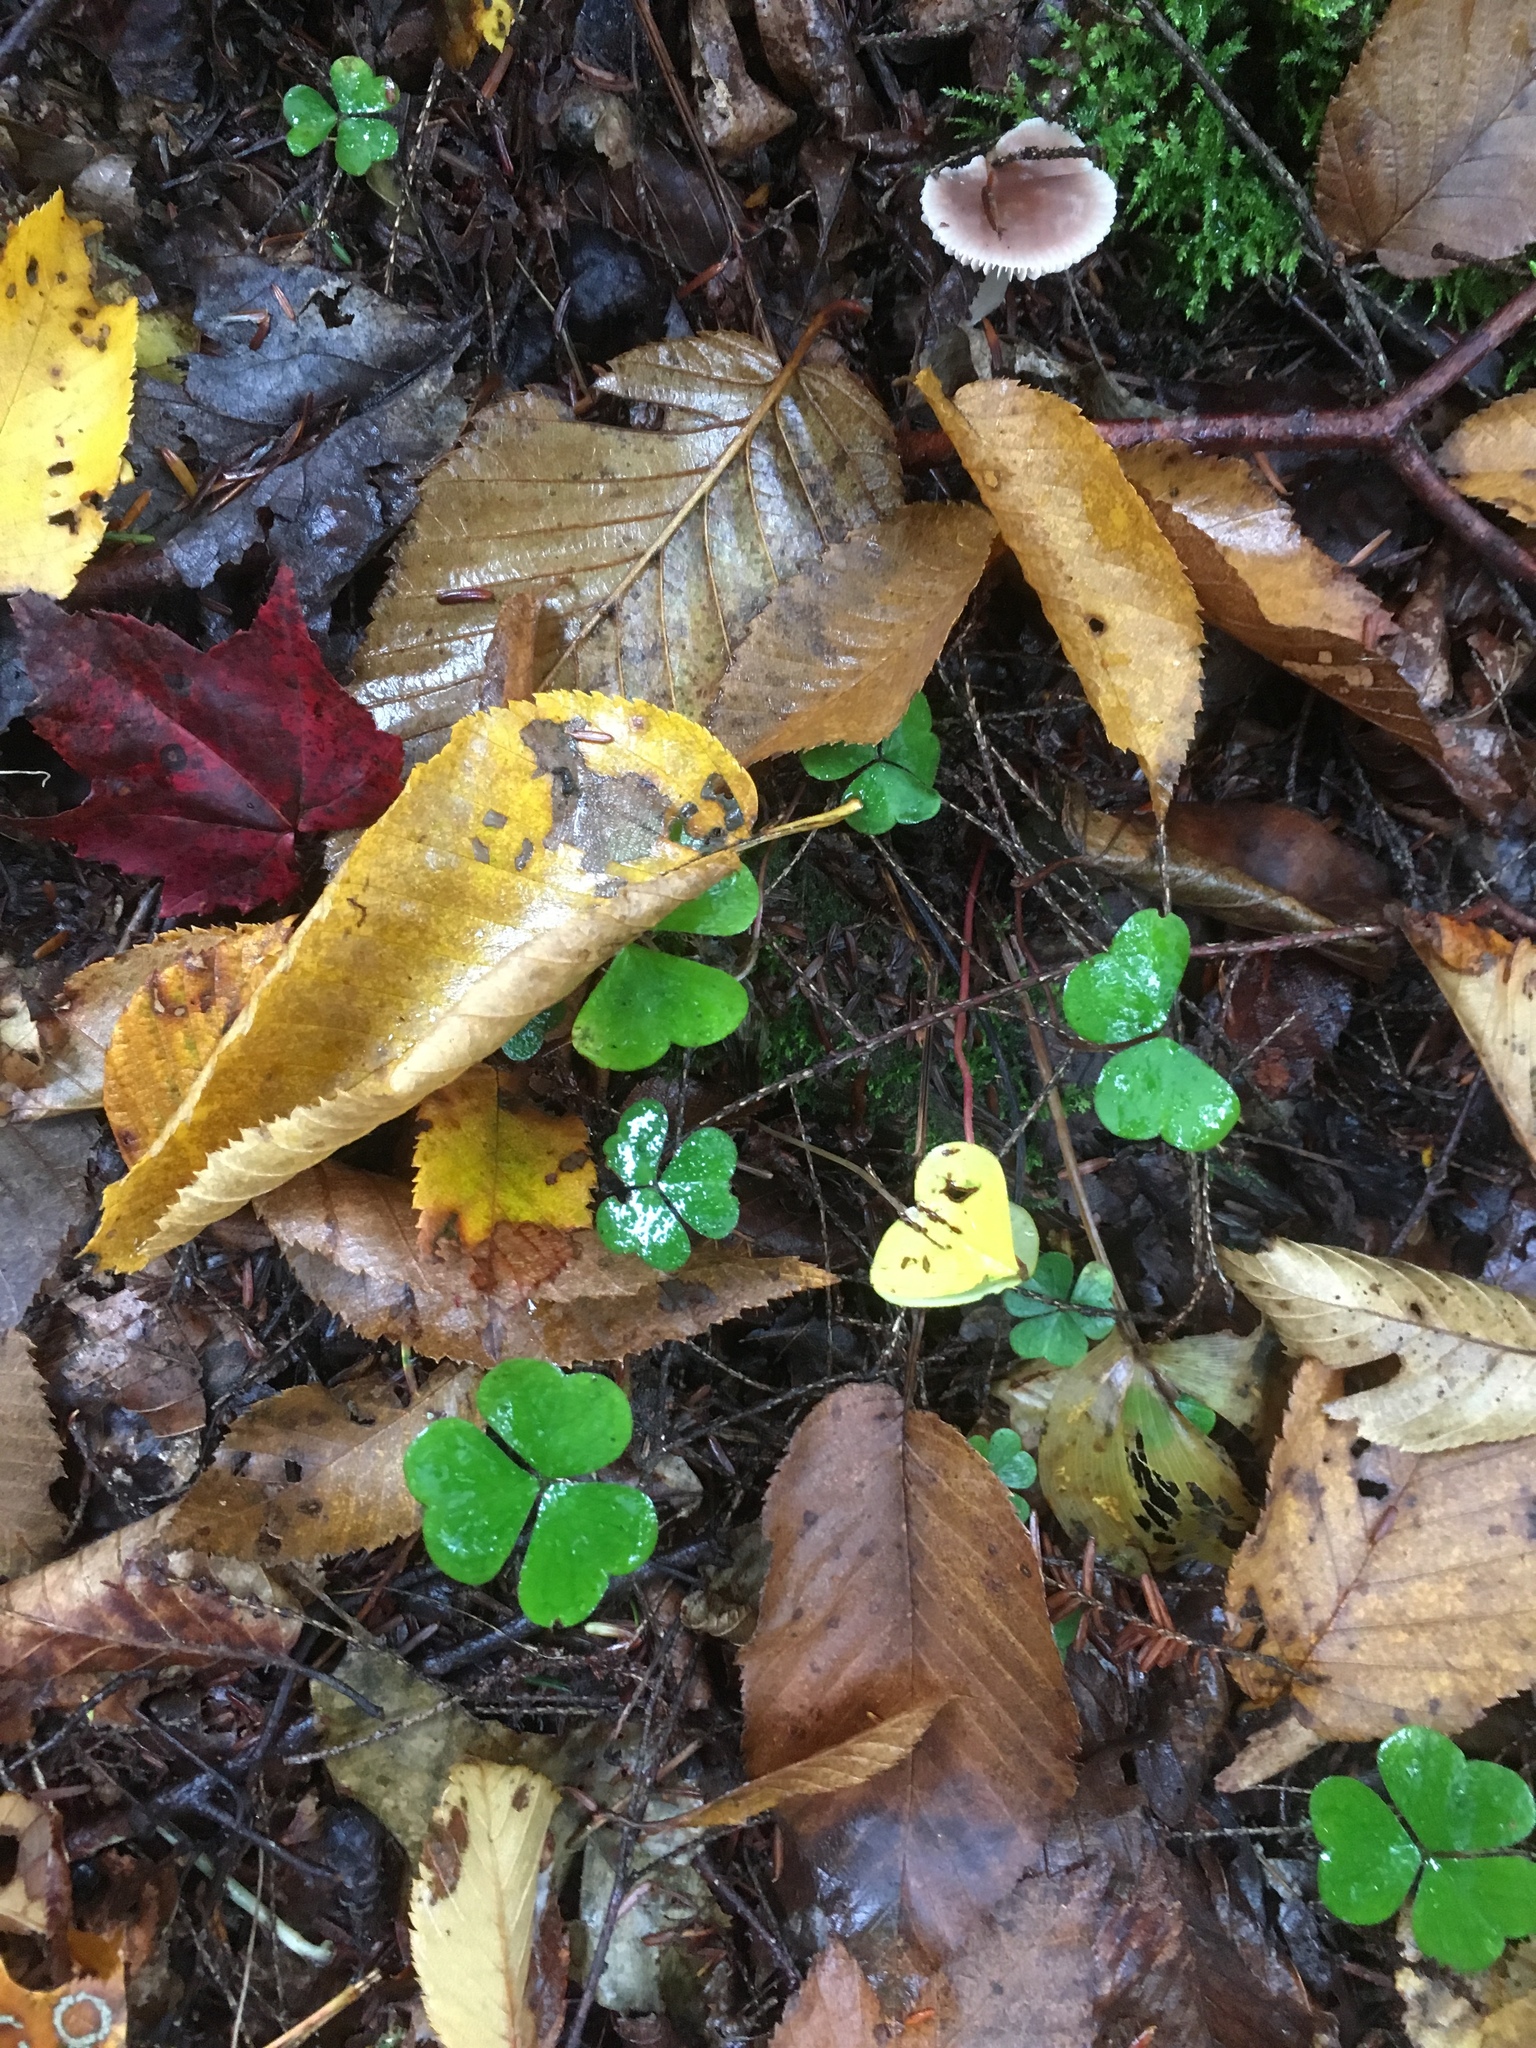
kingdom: Plantae
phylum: Tracheophyta
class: Magnoliopsida
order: Oxalidales
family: Oxalidaceae
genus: Oxalis
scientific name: Oxalis montana
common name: American wood-sorrel
